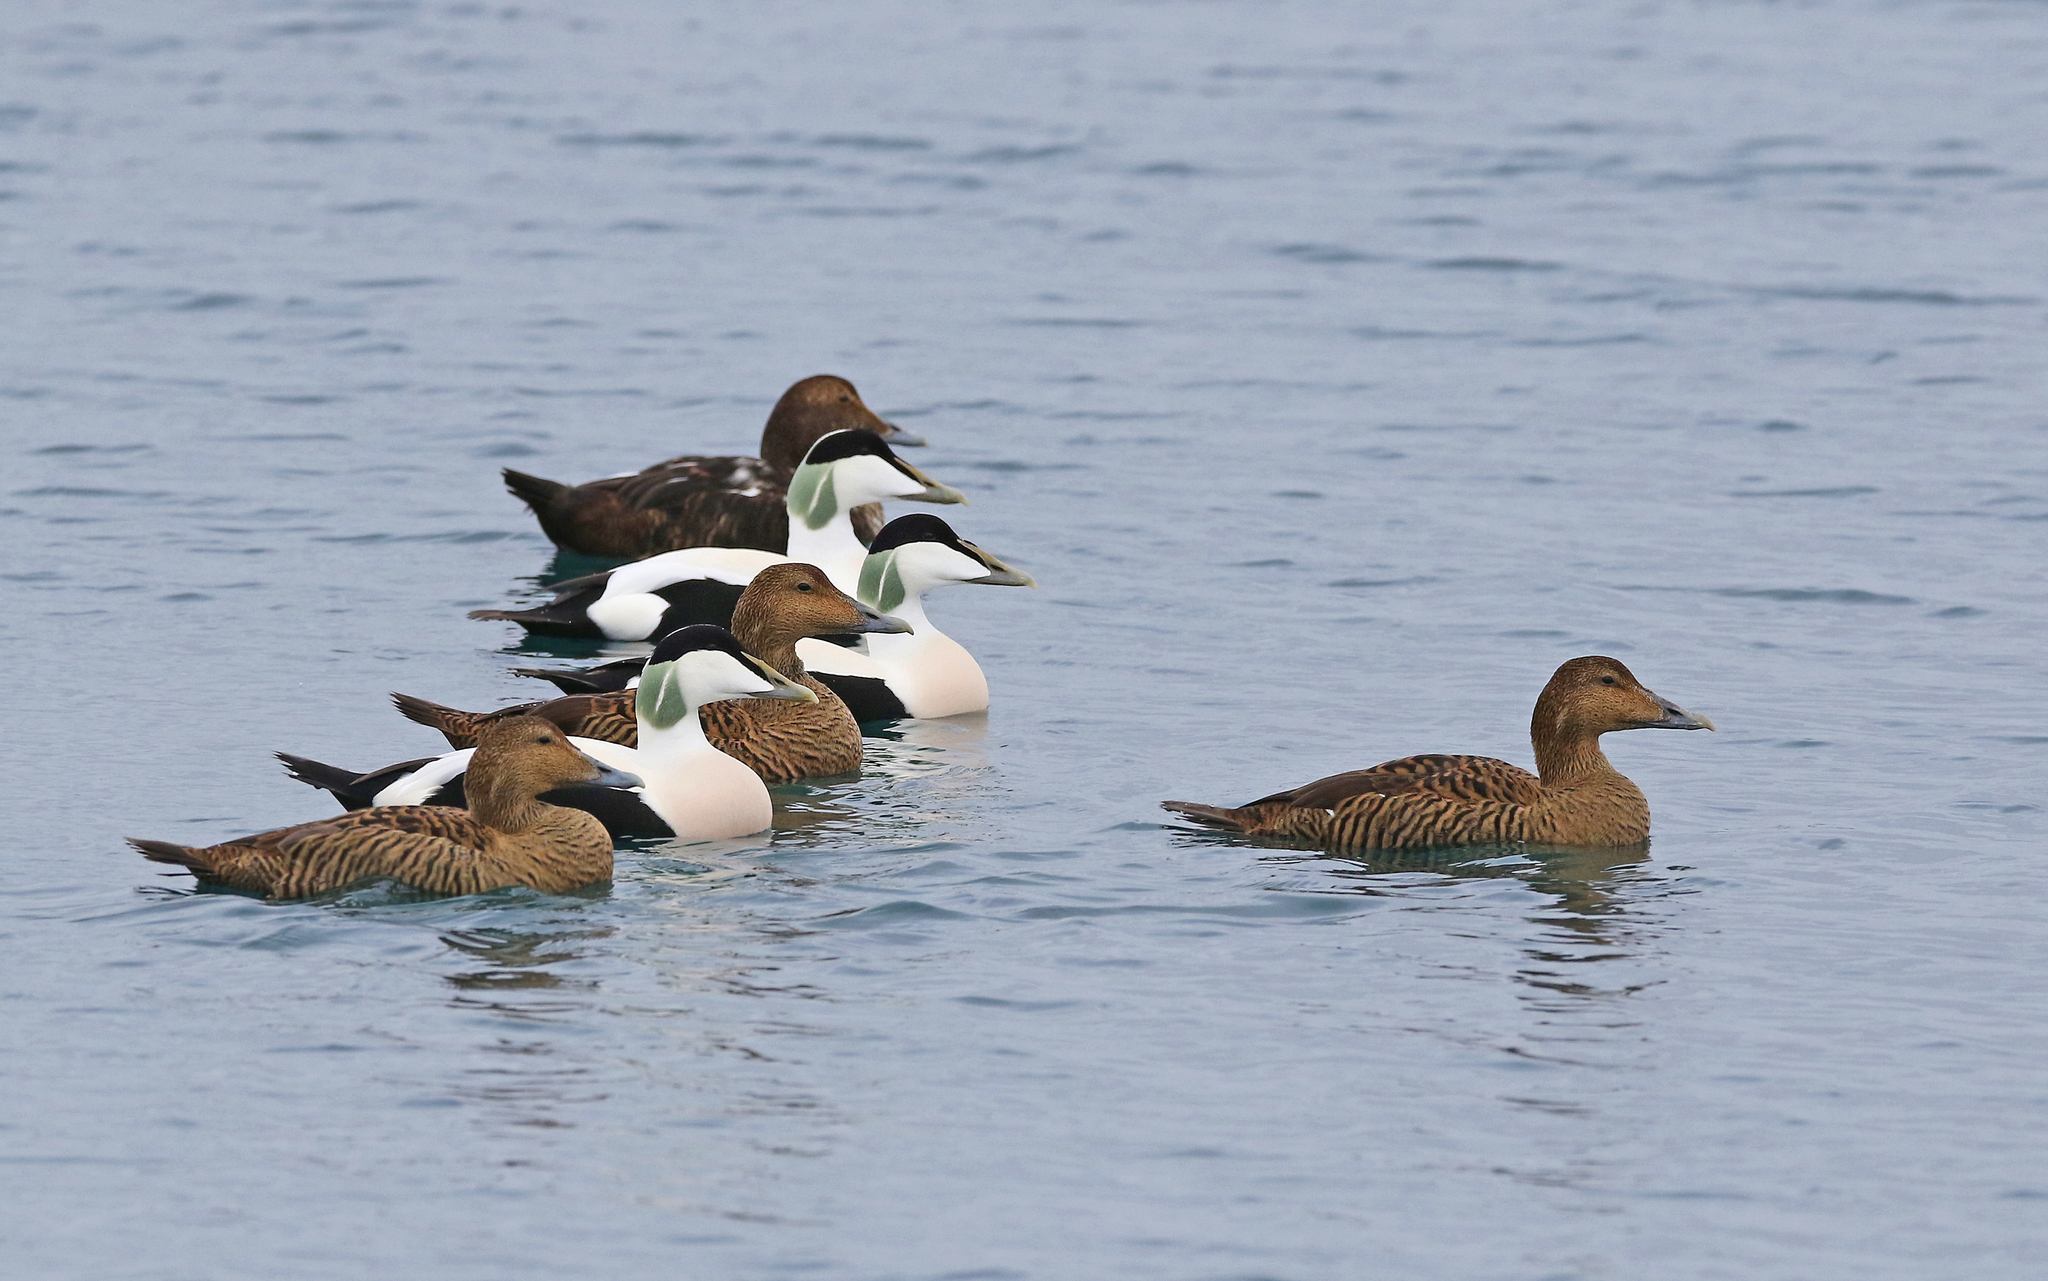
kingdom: Animalia
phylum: Chordata
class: Aves
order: Anseriformes
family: Anatidae
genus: Somateria
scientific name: Somateria mollissima
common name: Common eider
